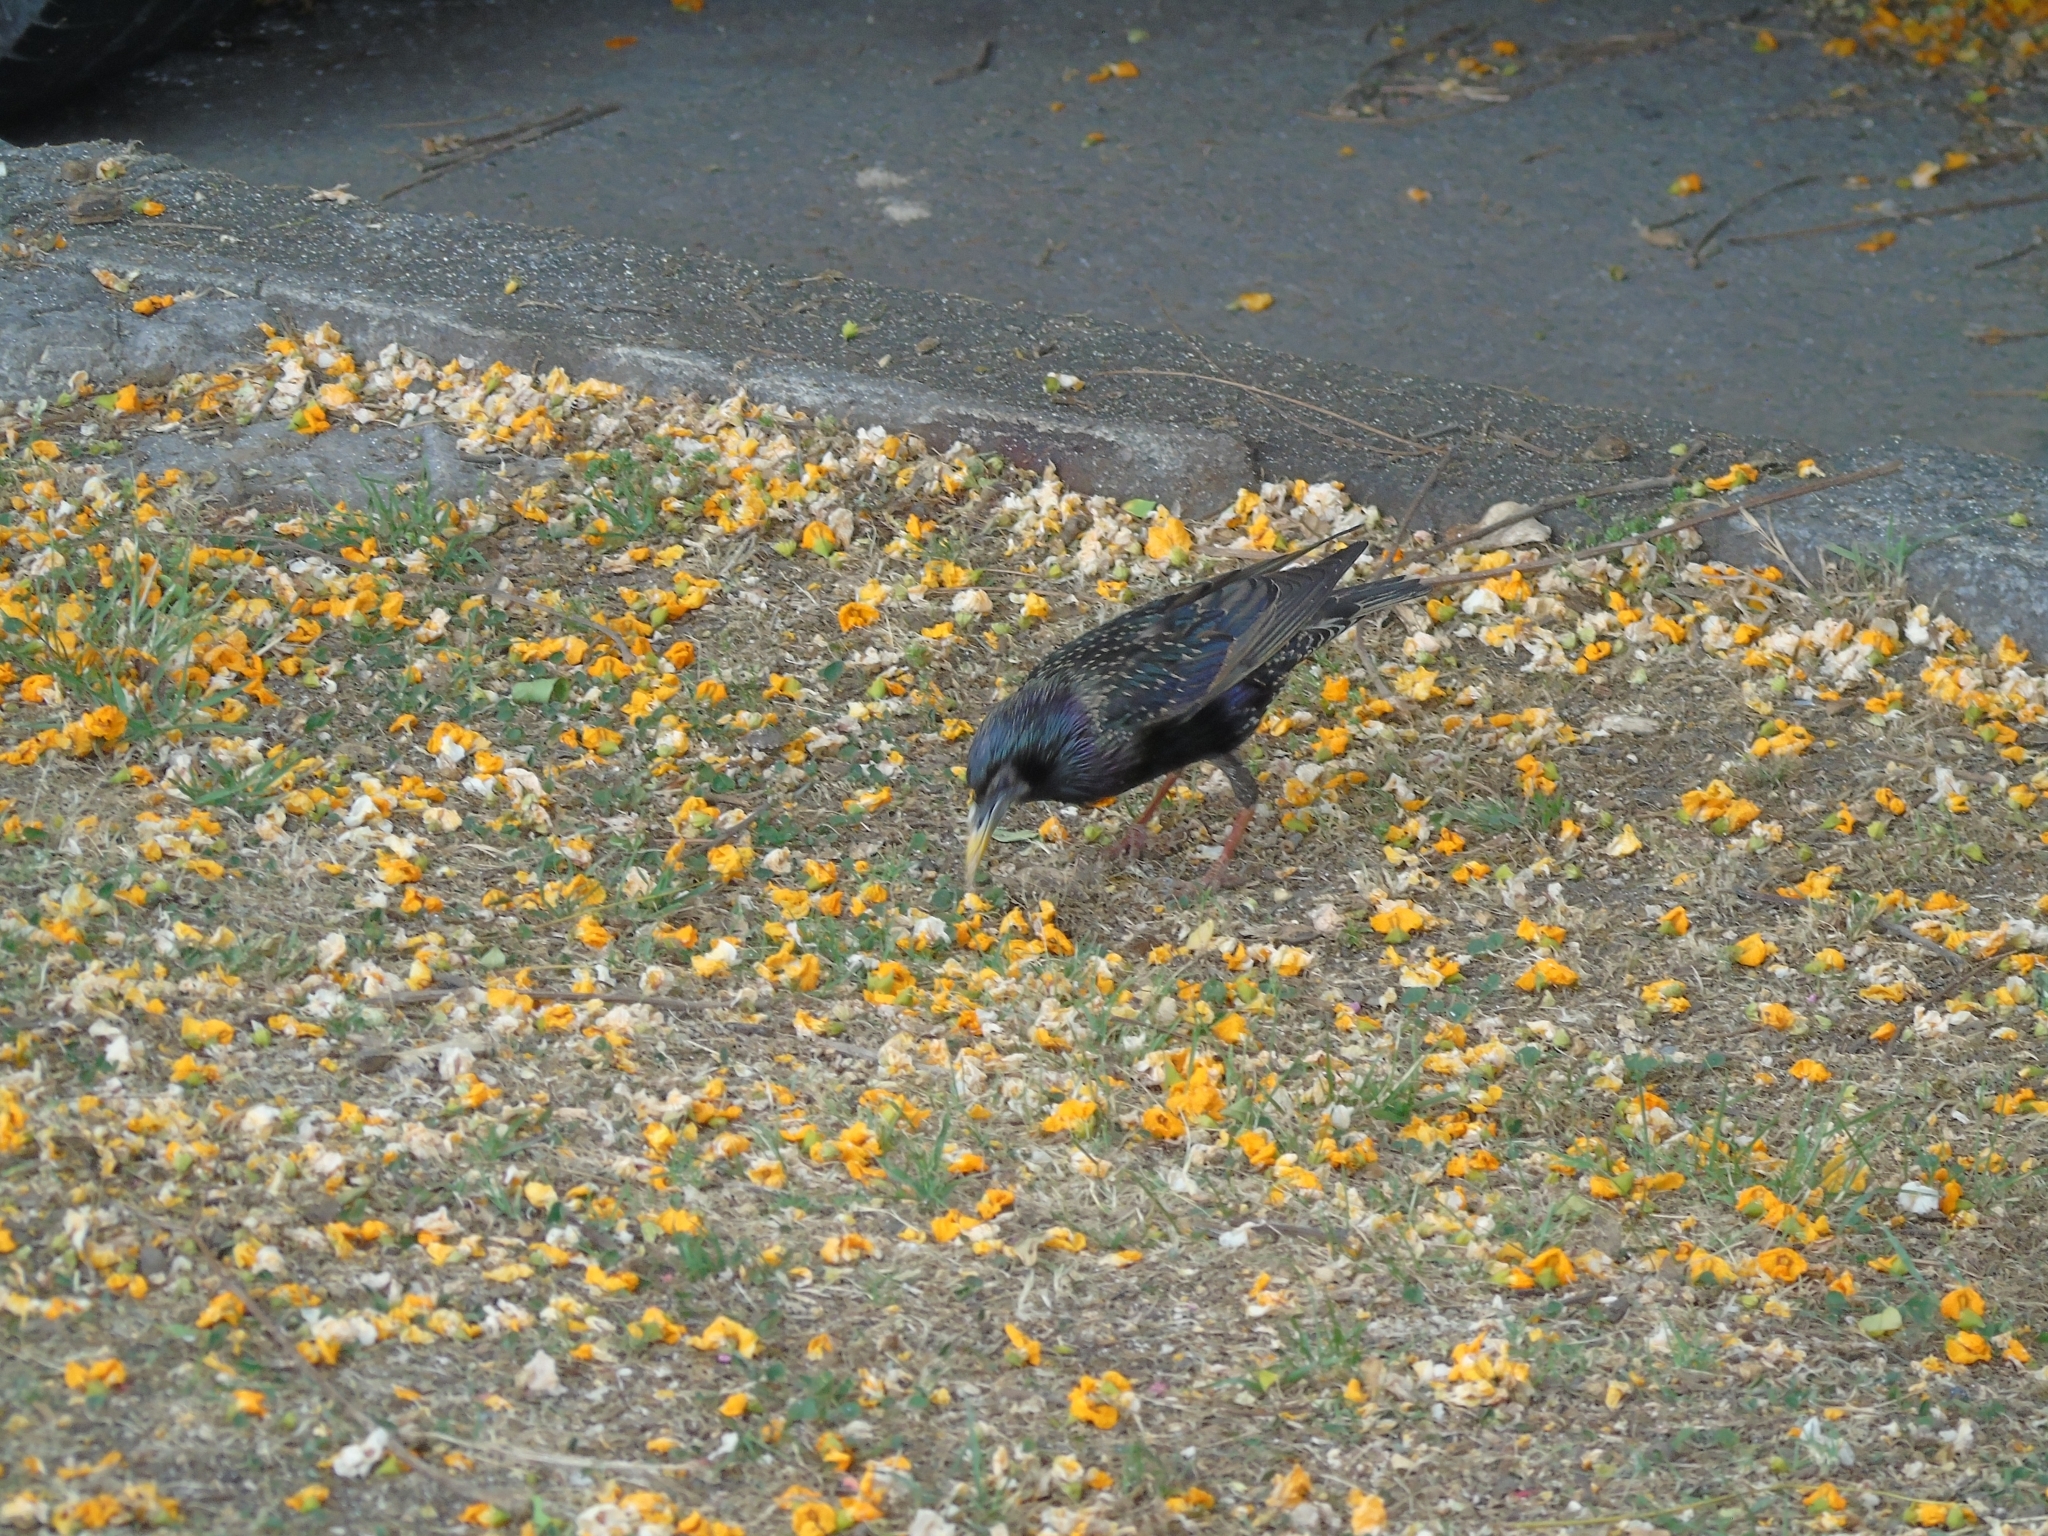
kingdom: Animalia
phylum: Chordata
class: Aves
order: Passeriformes
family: Sturnidae
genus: Sturnus
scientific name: Sturnus vulgaris
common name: Common starling
